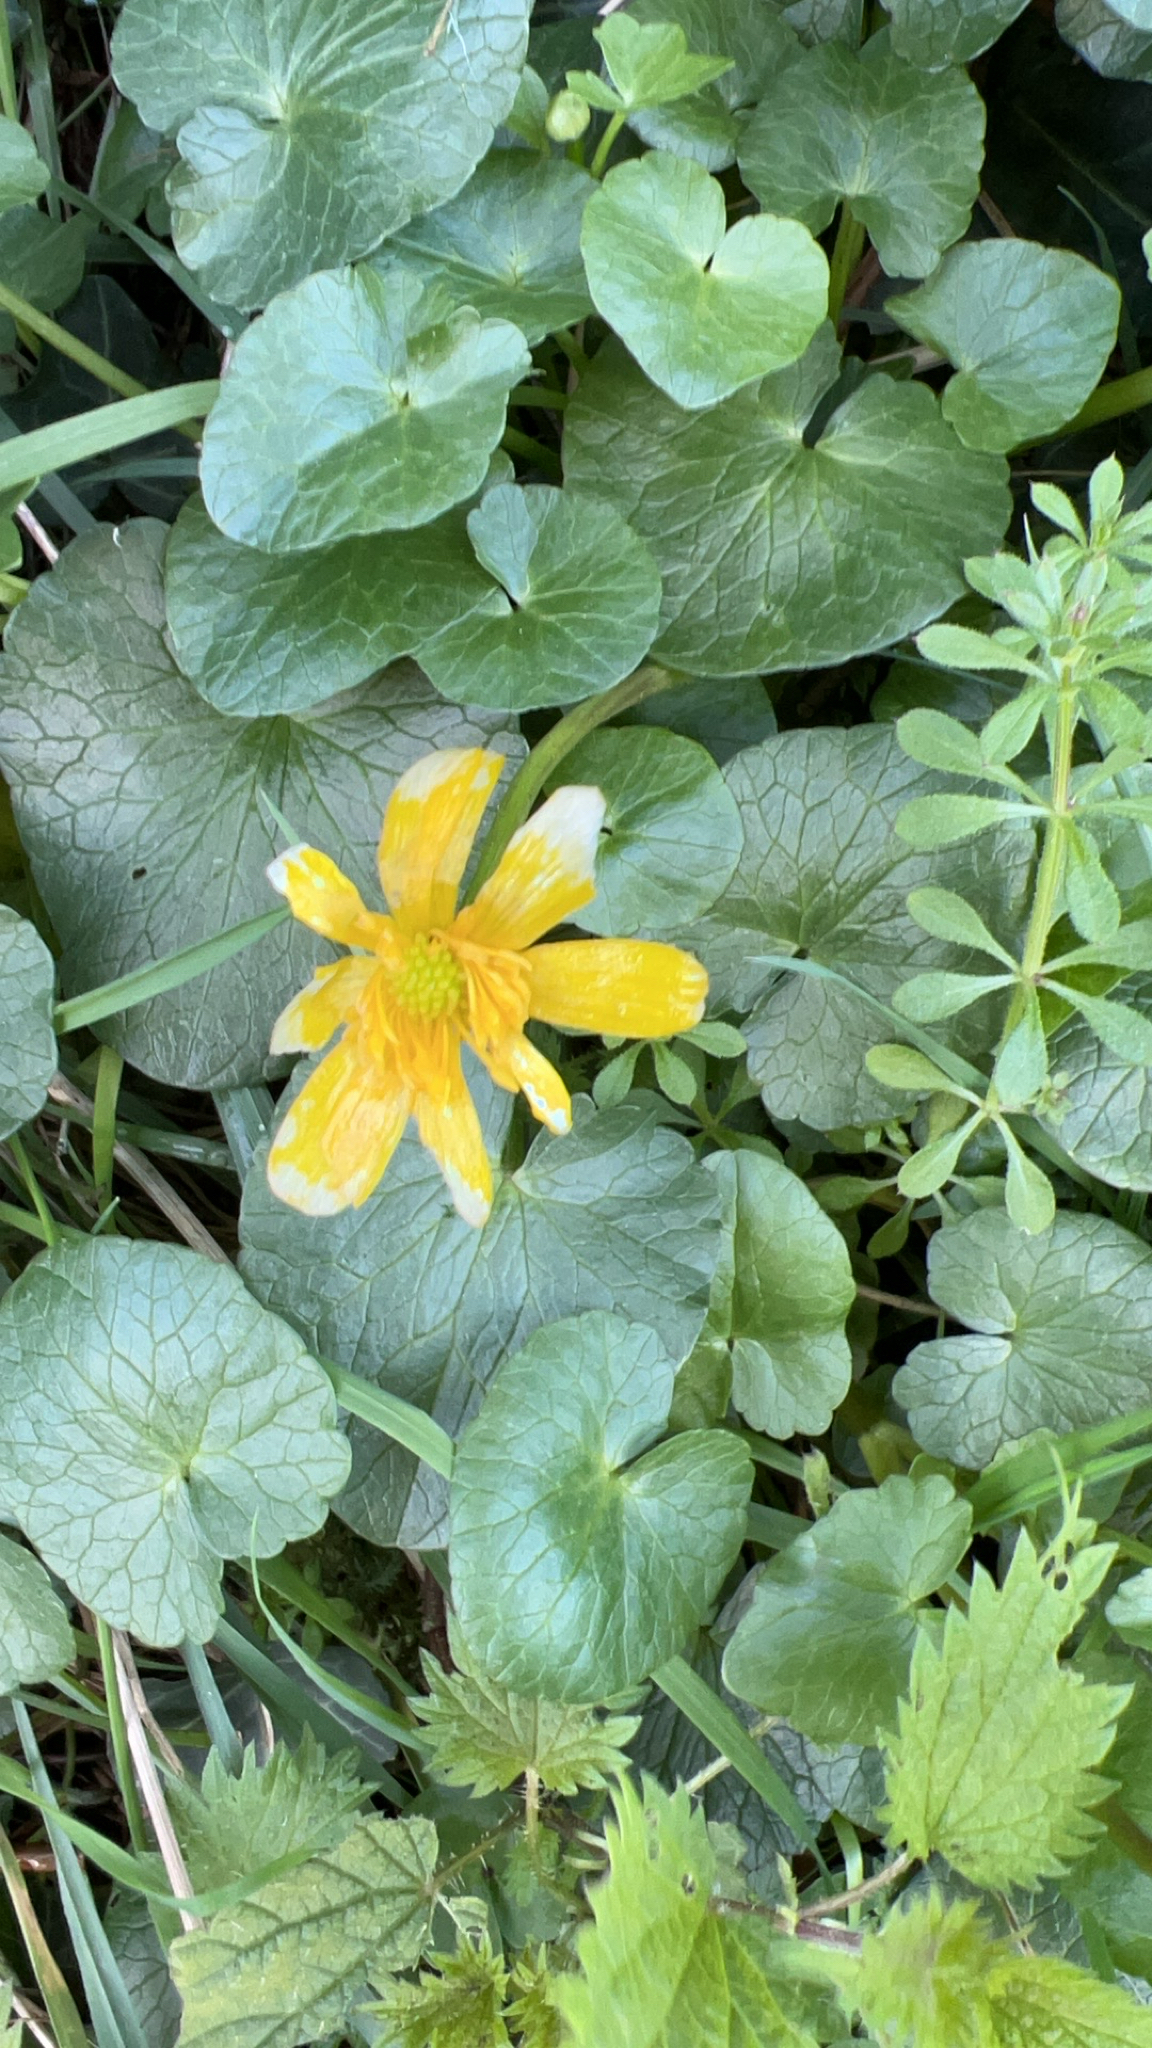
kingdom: Plantae
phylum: Tracheophyta
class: Magnoliopsida
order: Ranunculales
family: Ranunculaceae
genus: Ficaria
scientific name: Ficaria verna
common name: Lesser celandine
